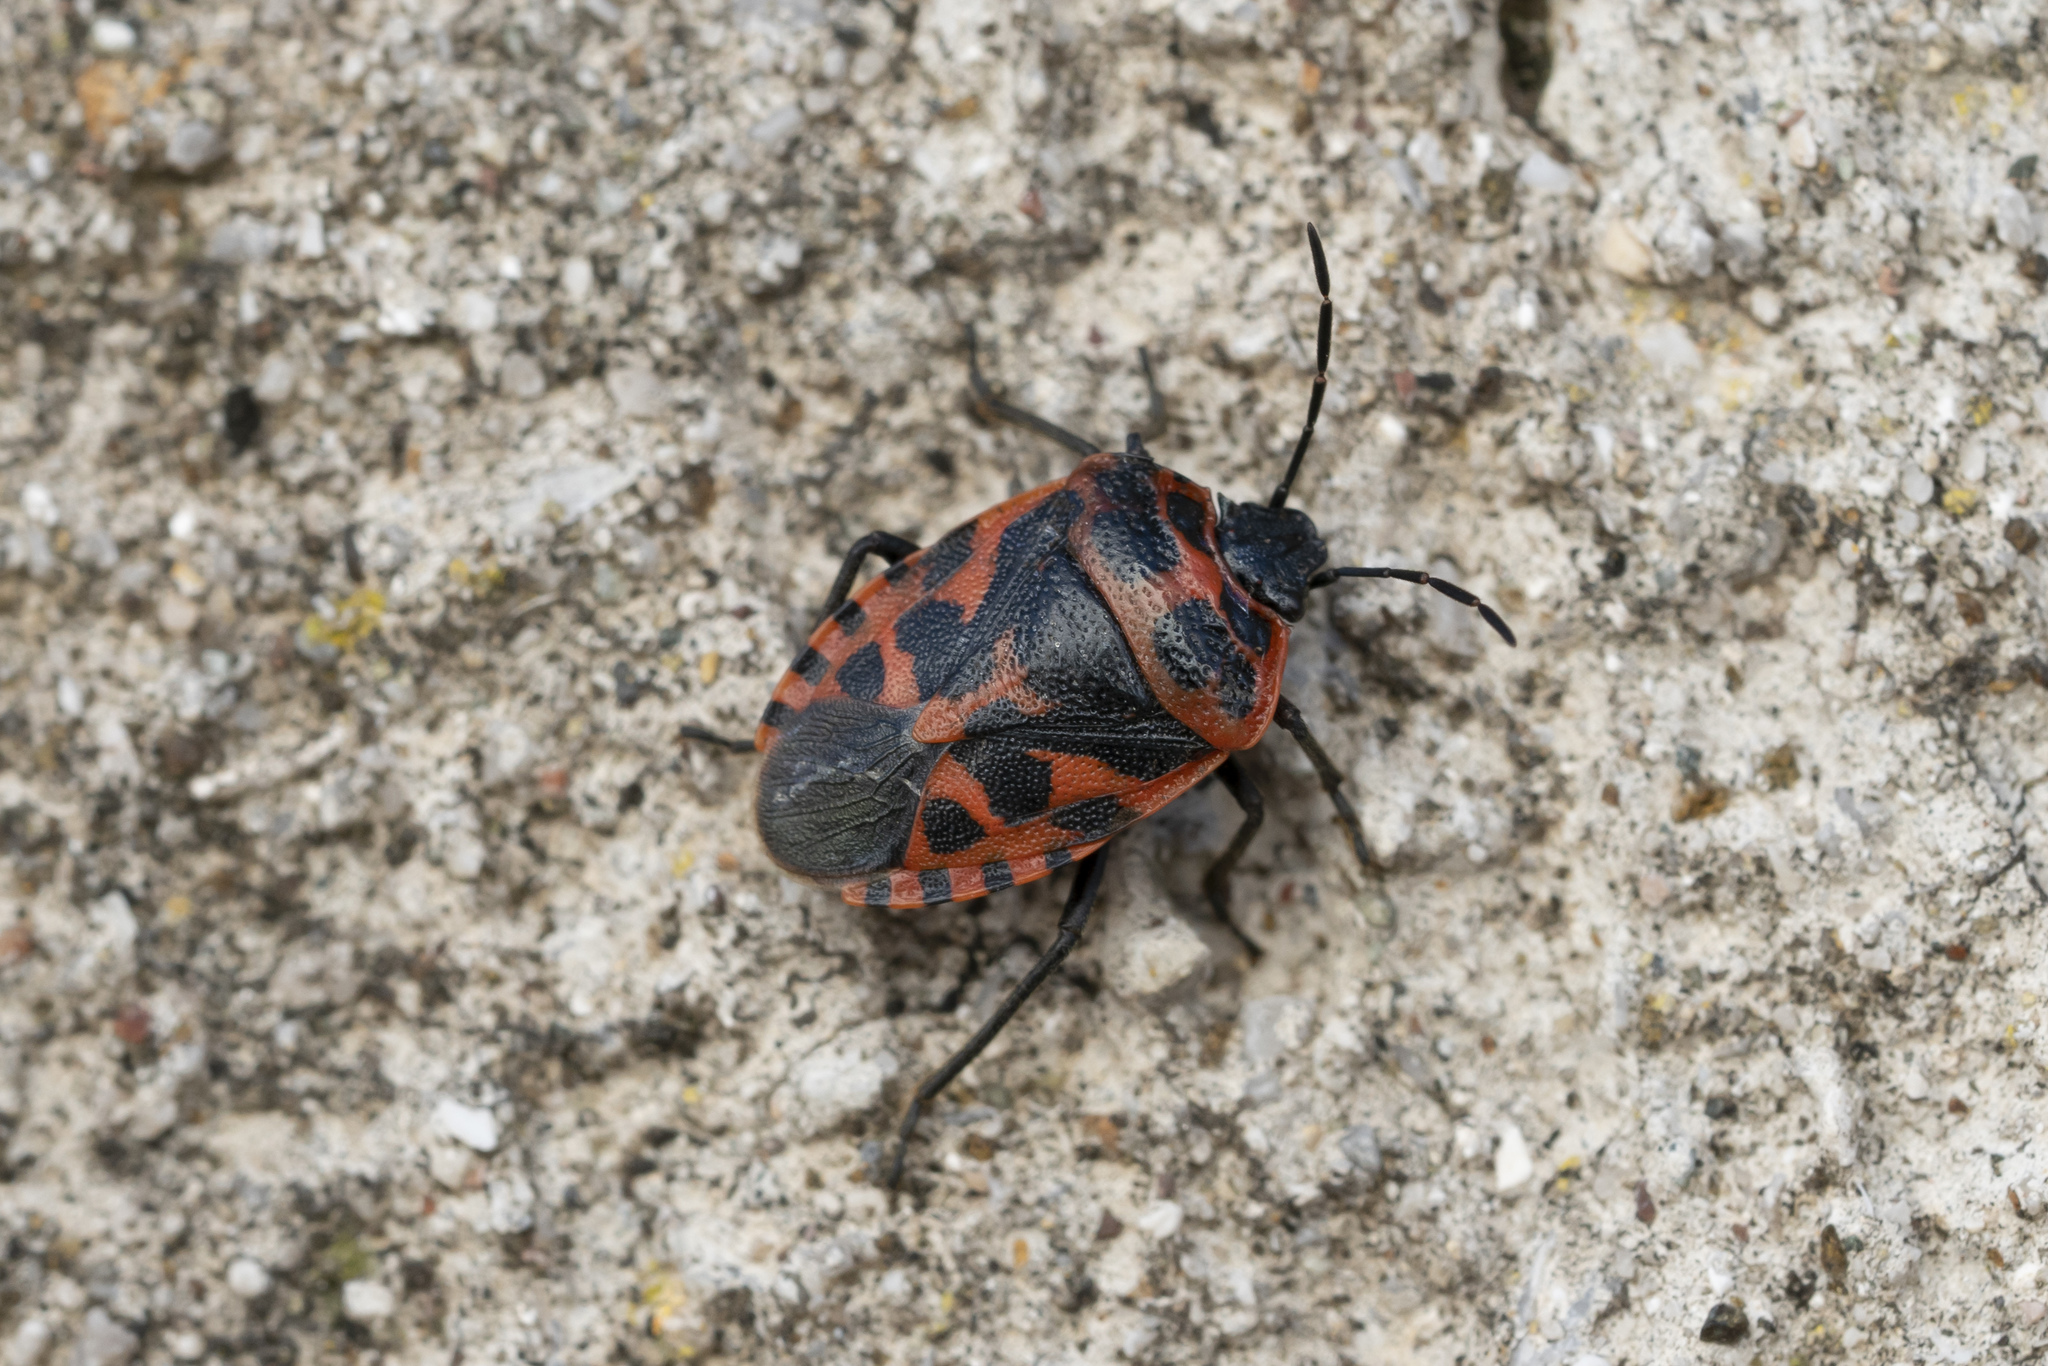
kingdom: Animalia
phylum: Arthropoda
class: Insecta
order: Hemiptera
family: Pentatomidae
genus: Eurydema
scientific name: Eurydema eckerleini
